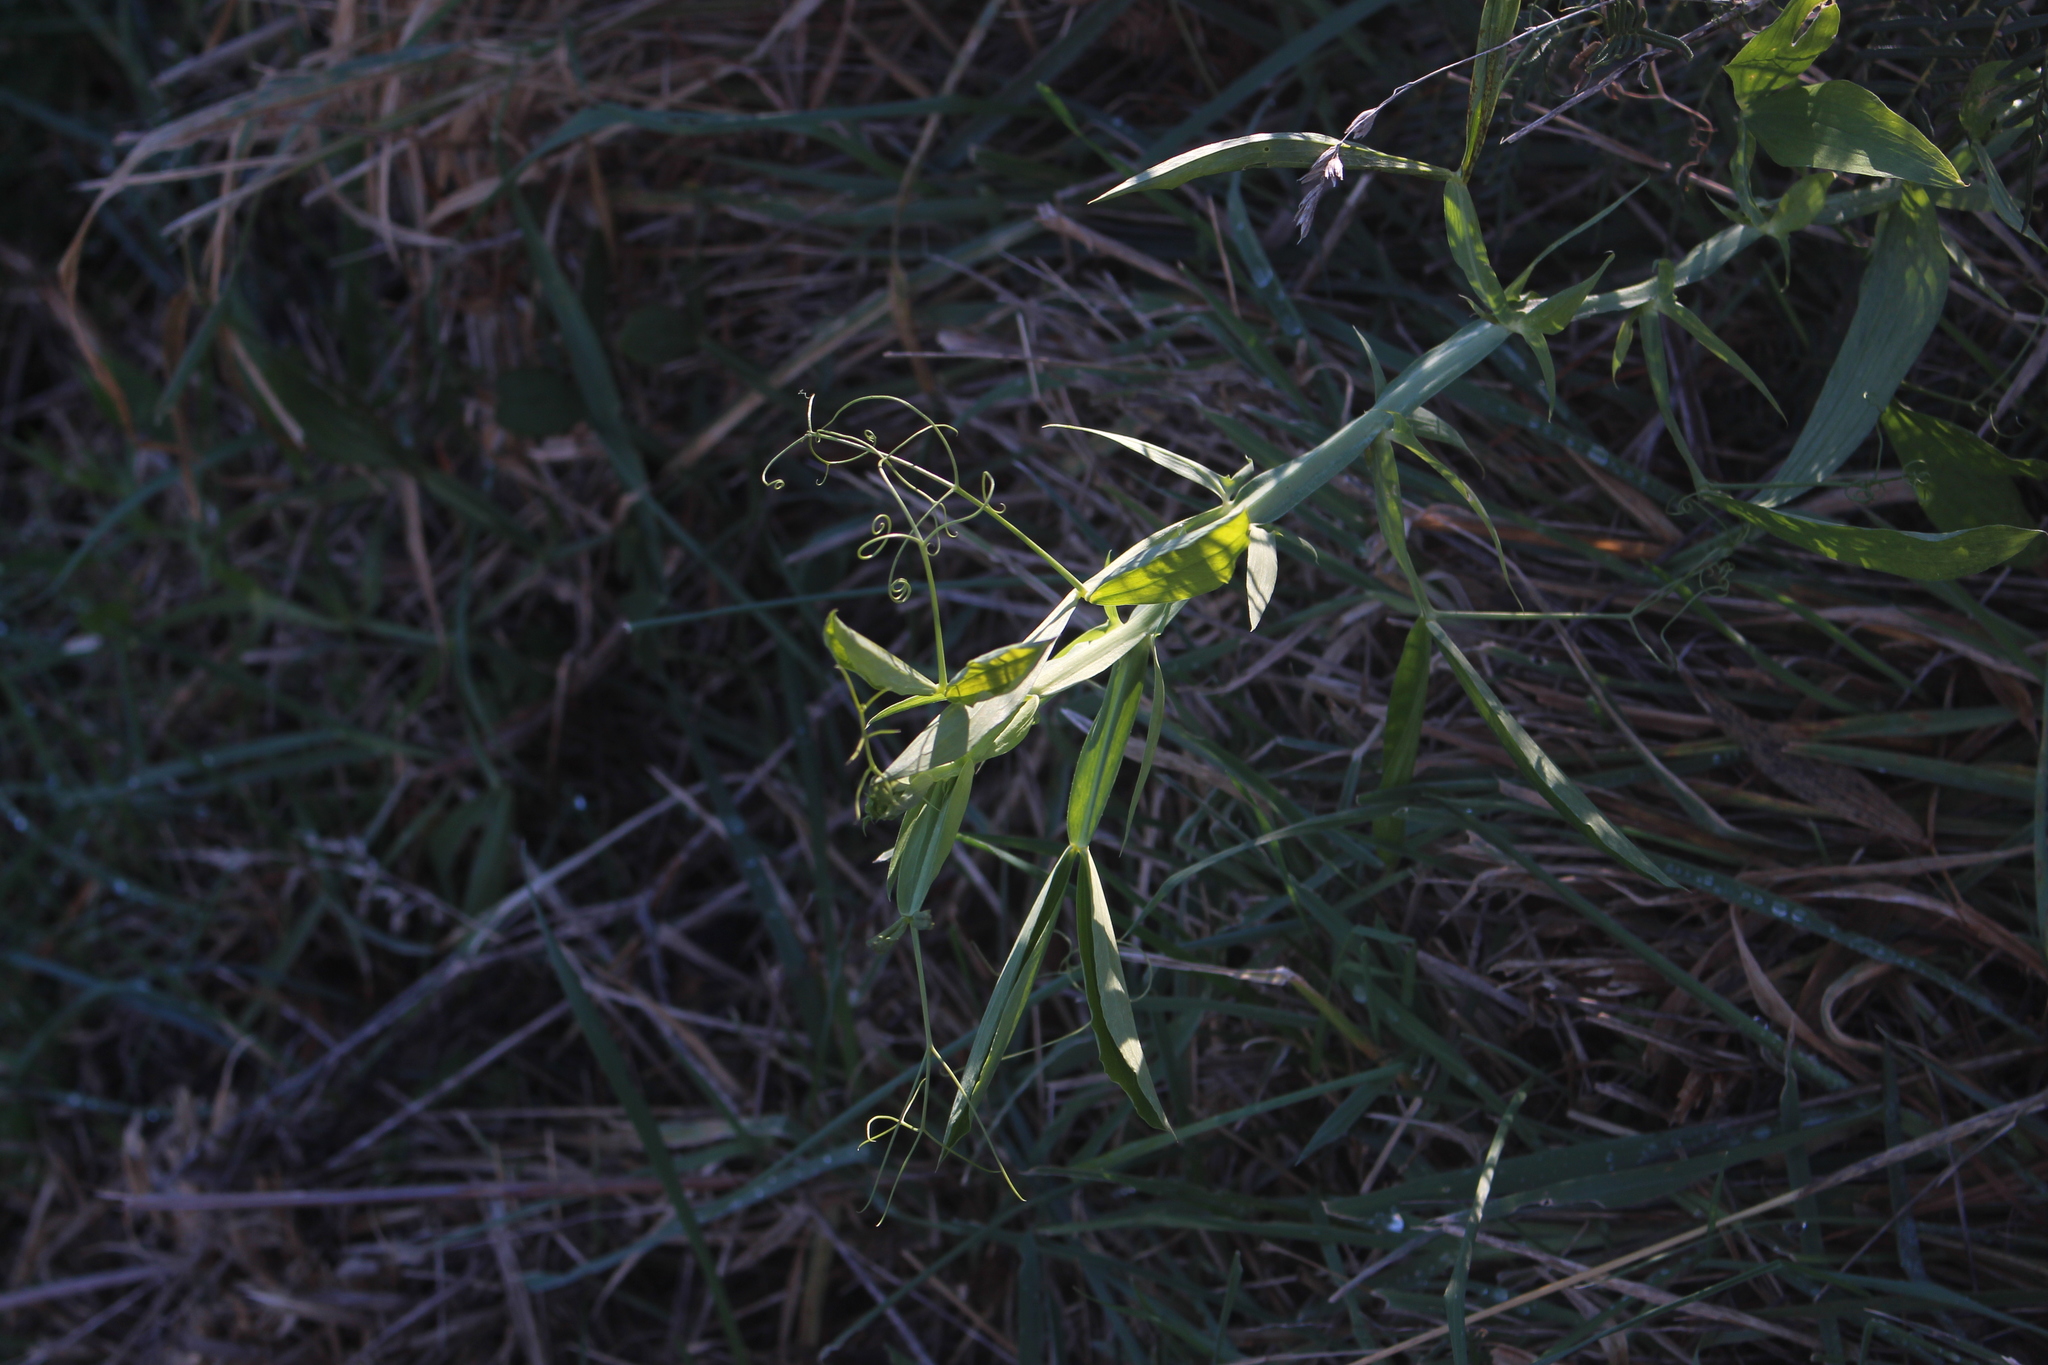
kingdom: Plantae
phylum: Tracheophyta
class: Magnoliopsida
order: Fabales
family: Fabaceae
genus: Lathyrus
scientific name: Lathyrus latifolius
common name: Perennial pea
